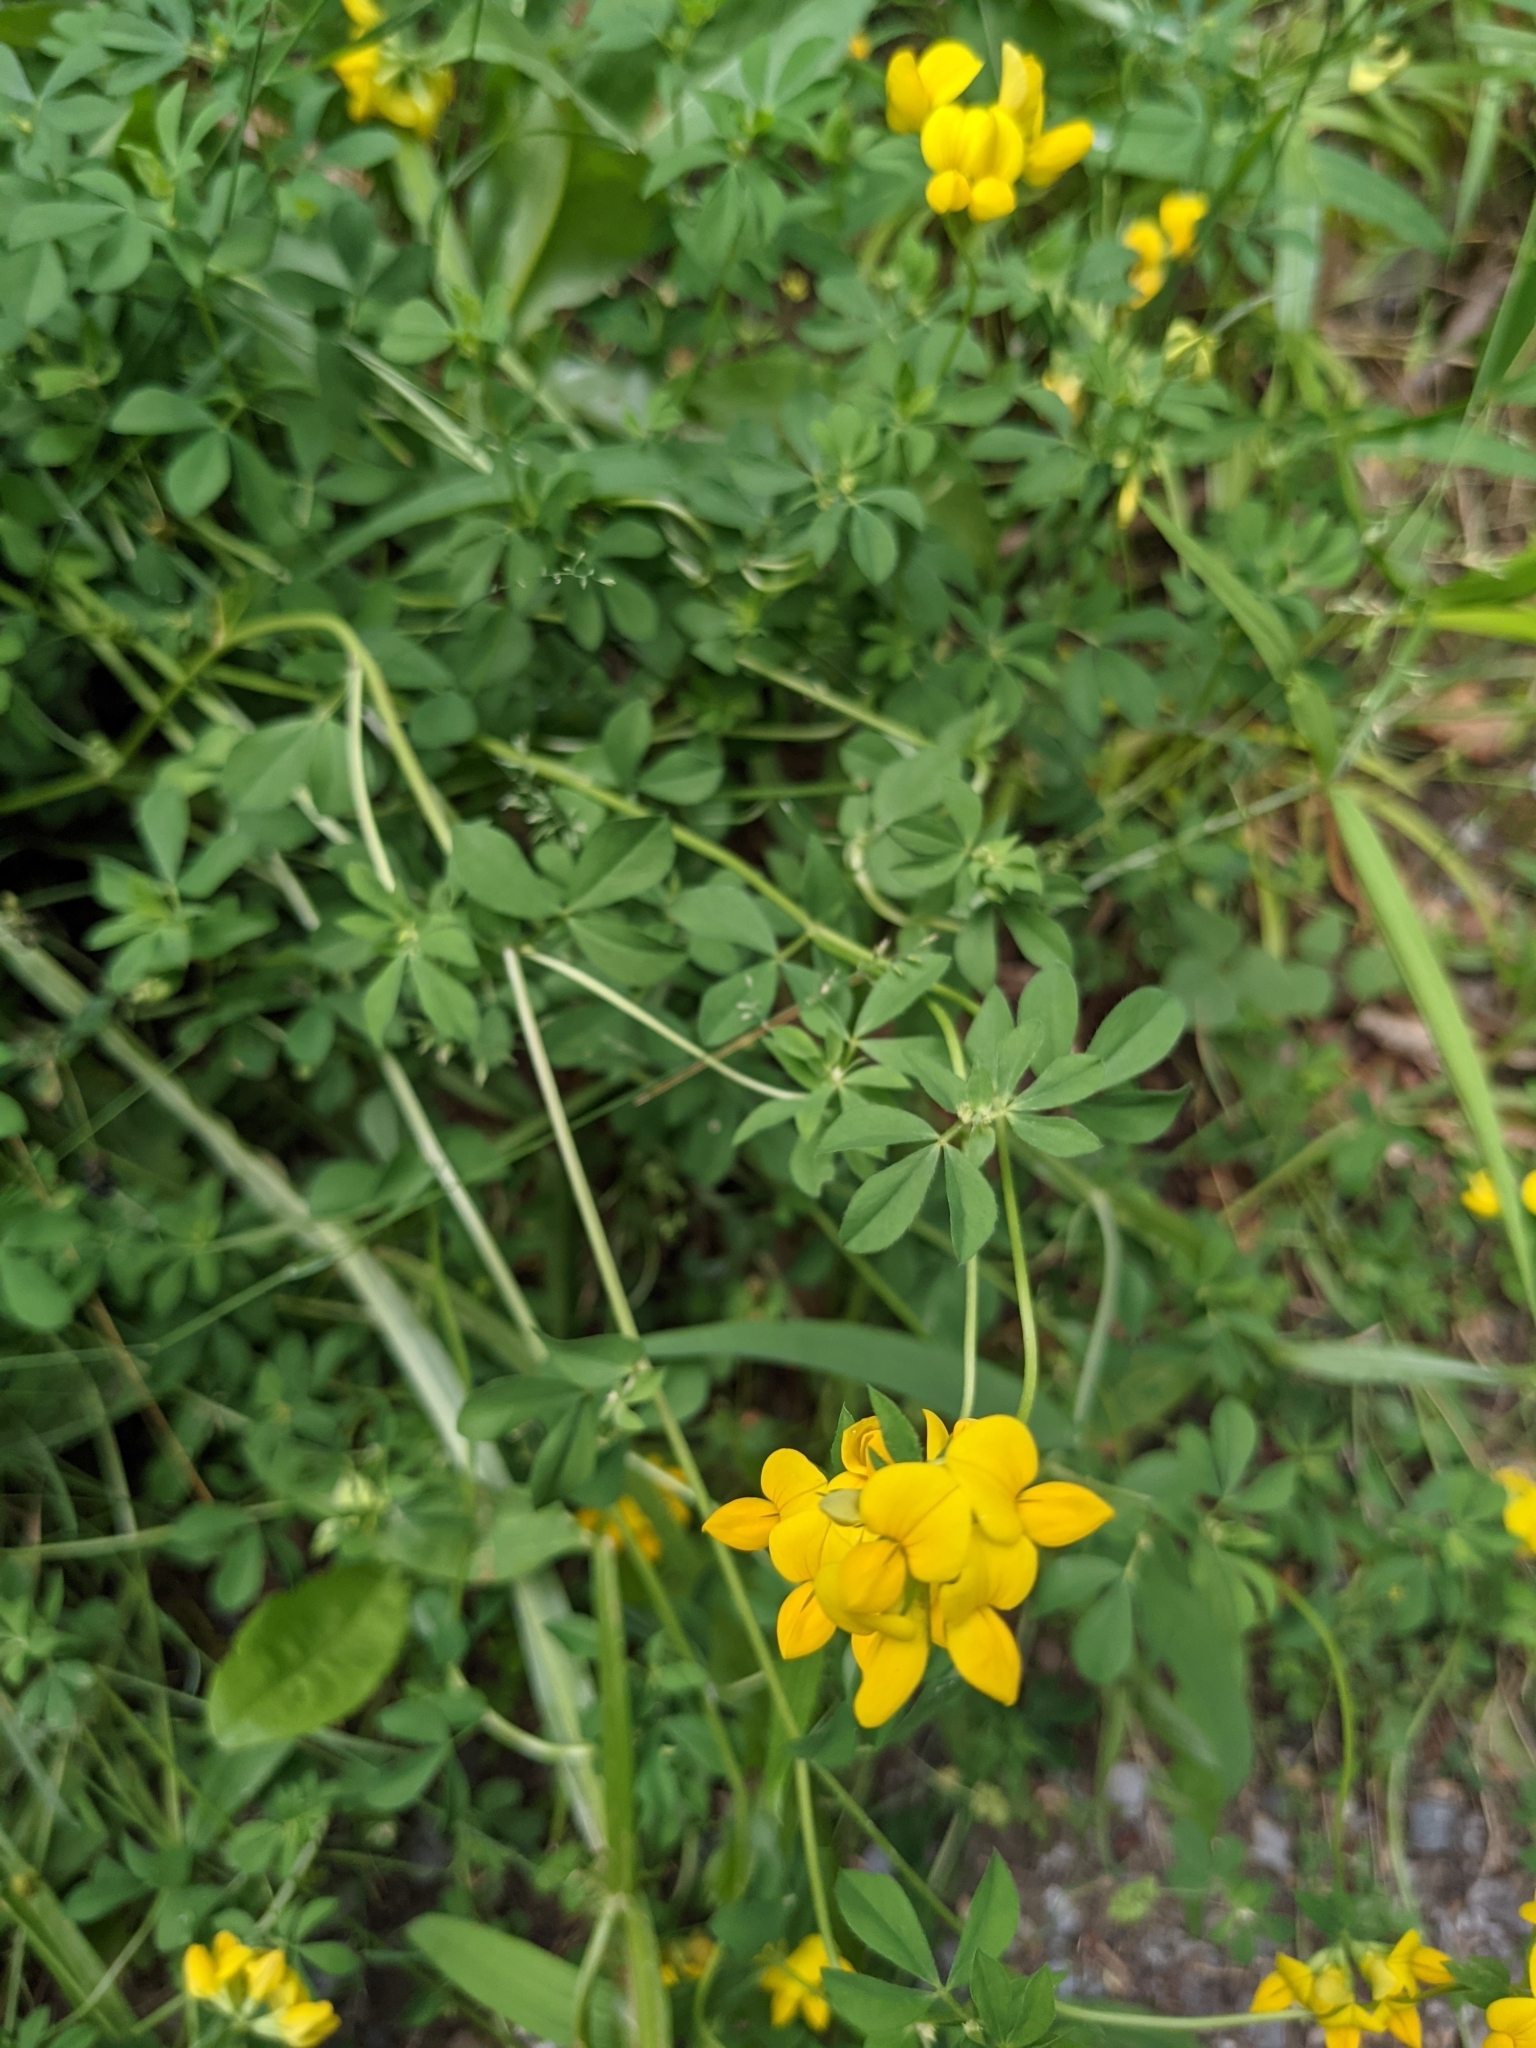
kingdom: Plantae
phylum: Tracheophyta
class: Magnoliopsida
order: Fabales
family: Fabaceae
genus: Lotus
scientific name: Lotus corniculatus
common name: Common bird's-foot-trefoil
